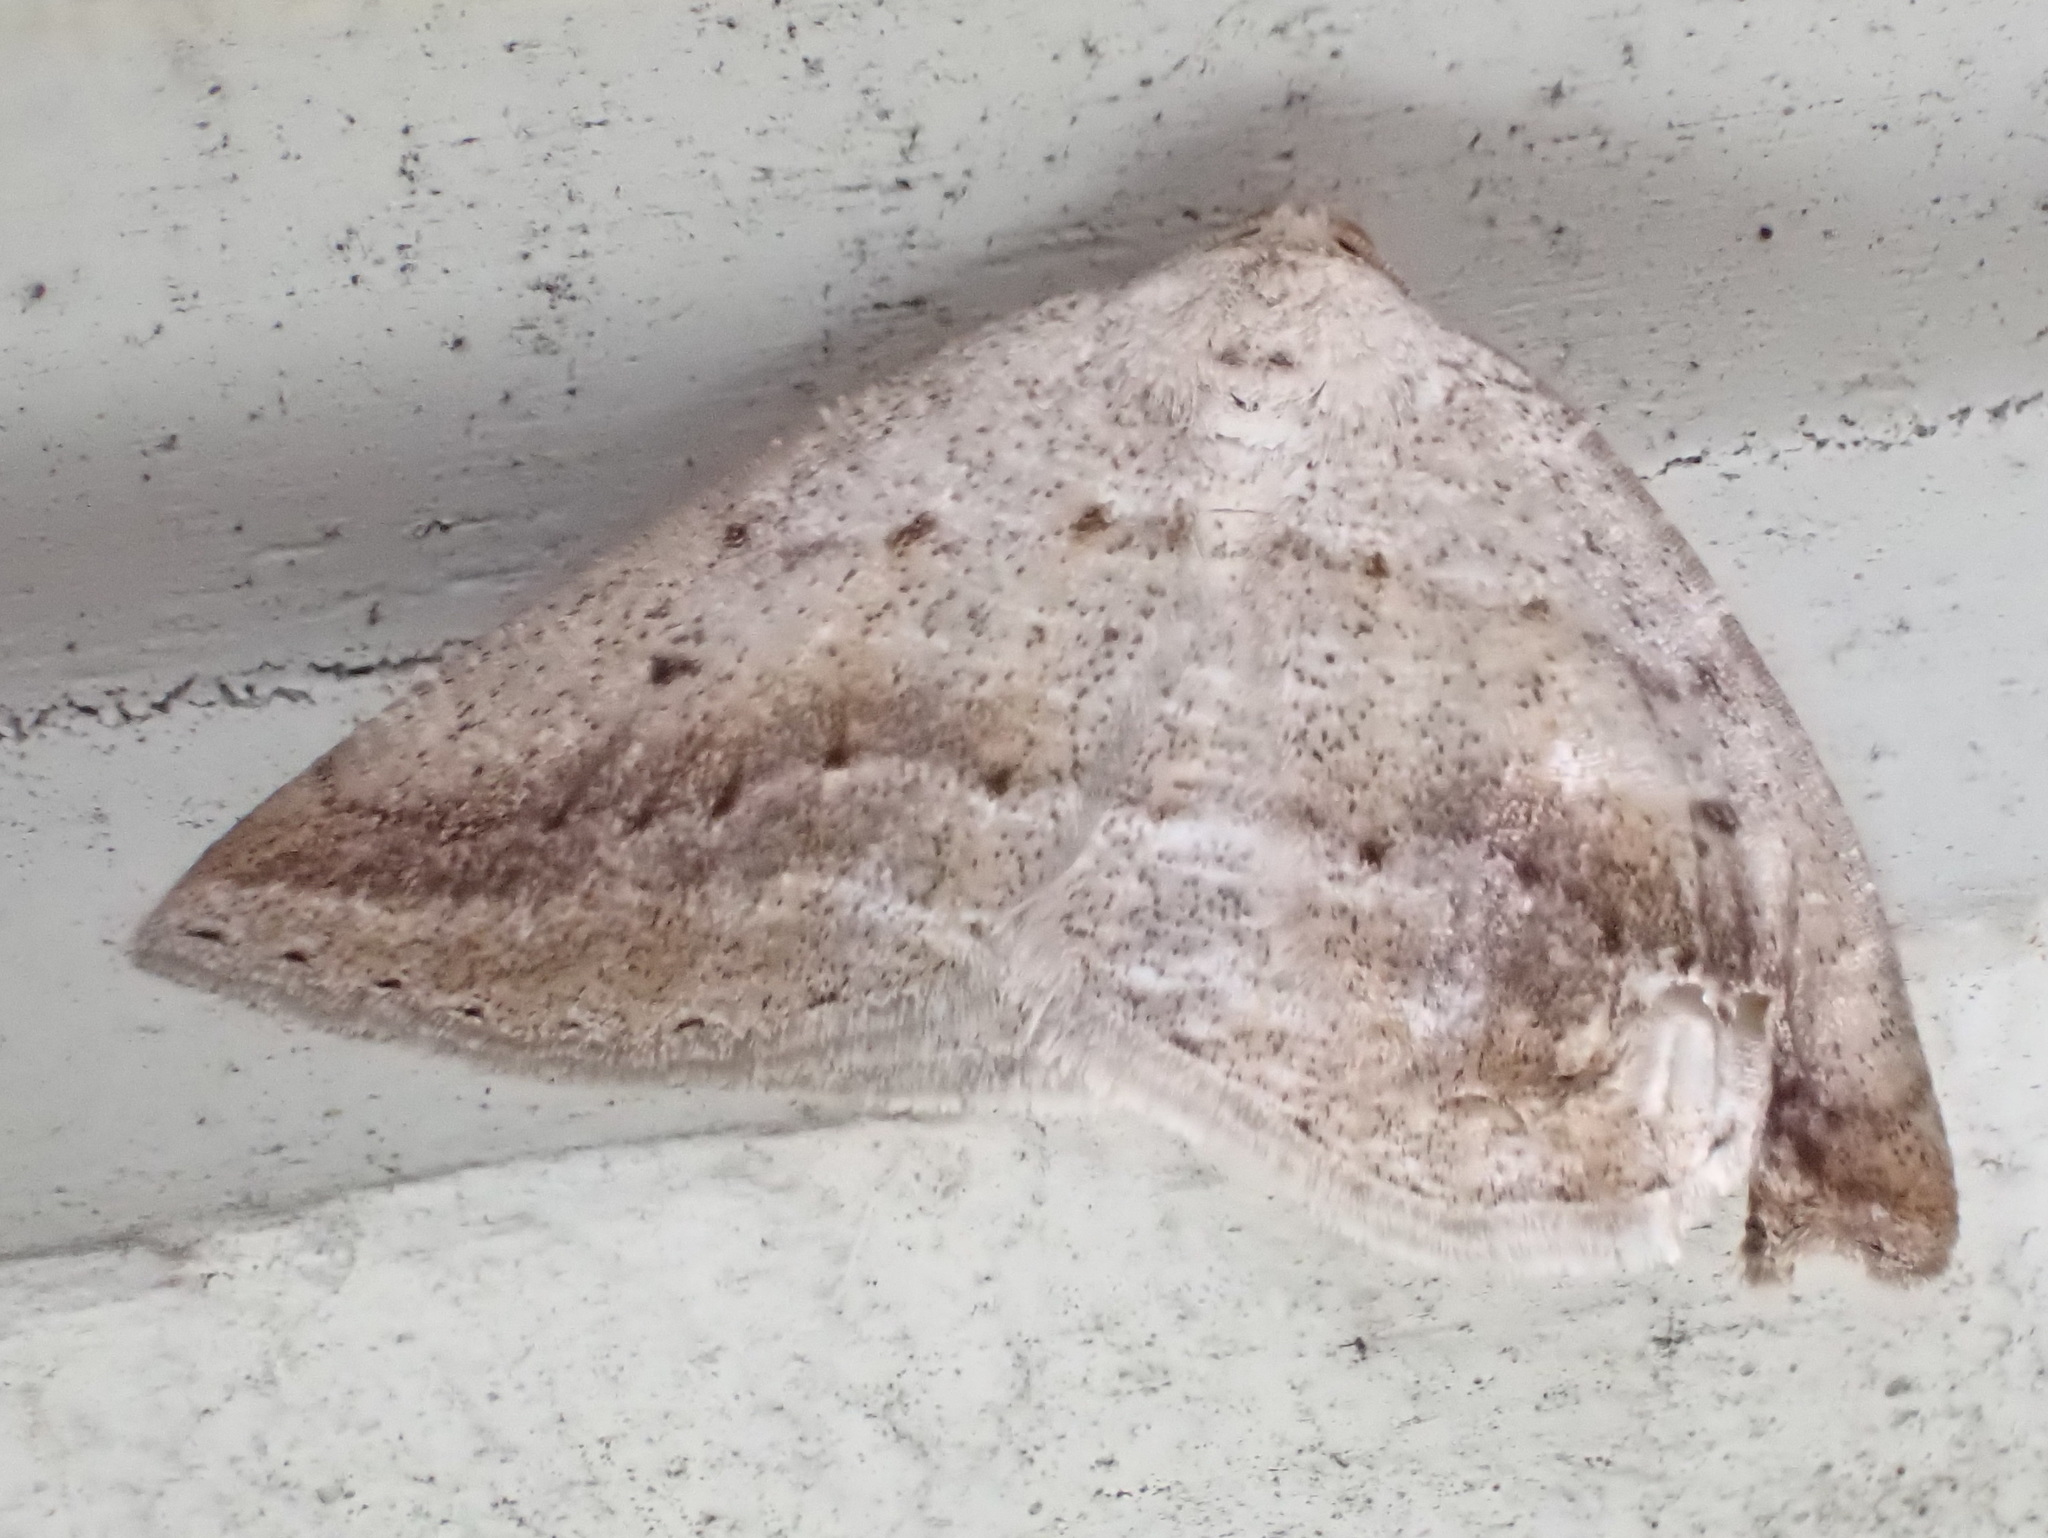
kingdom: Animalia
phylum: Arthropoda
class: Insecta
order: Lepidoptera
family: Geometridae
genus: Tacparia
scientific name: Tacparia detersata
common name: Pale alder moth
